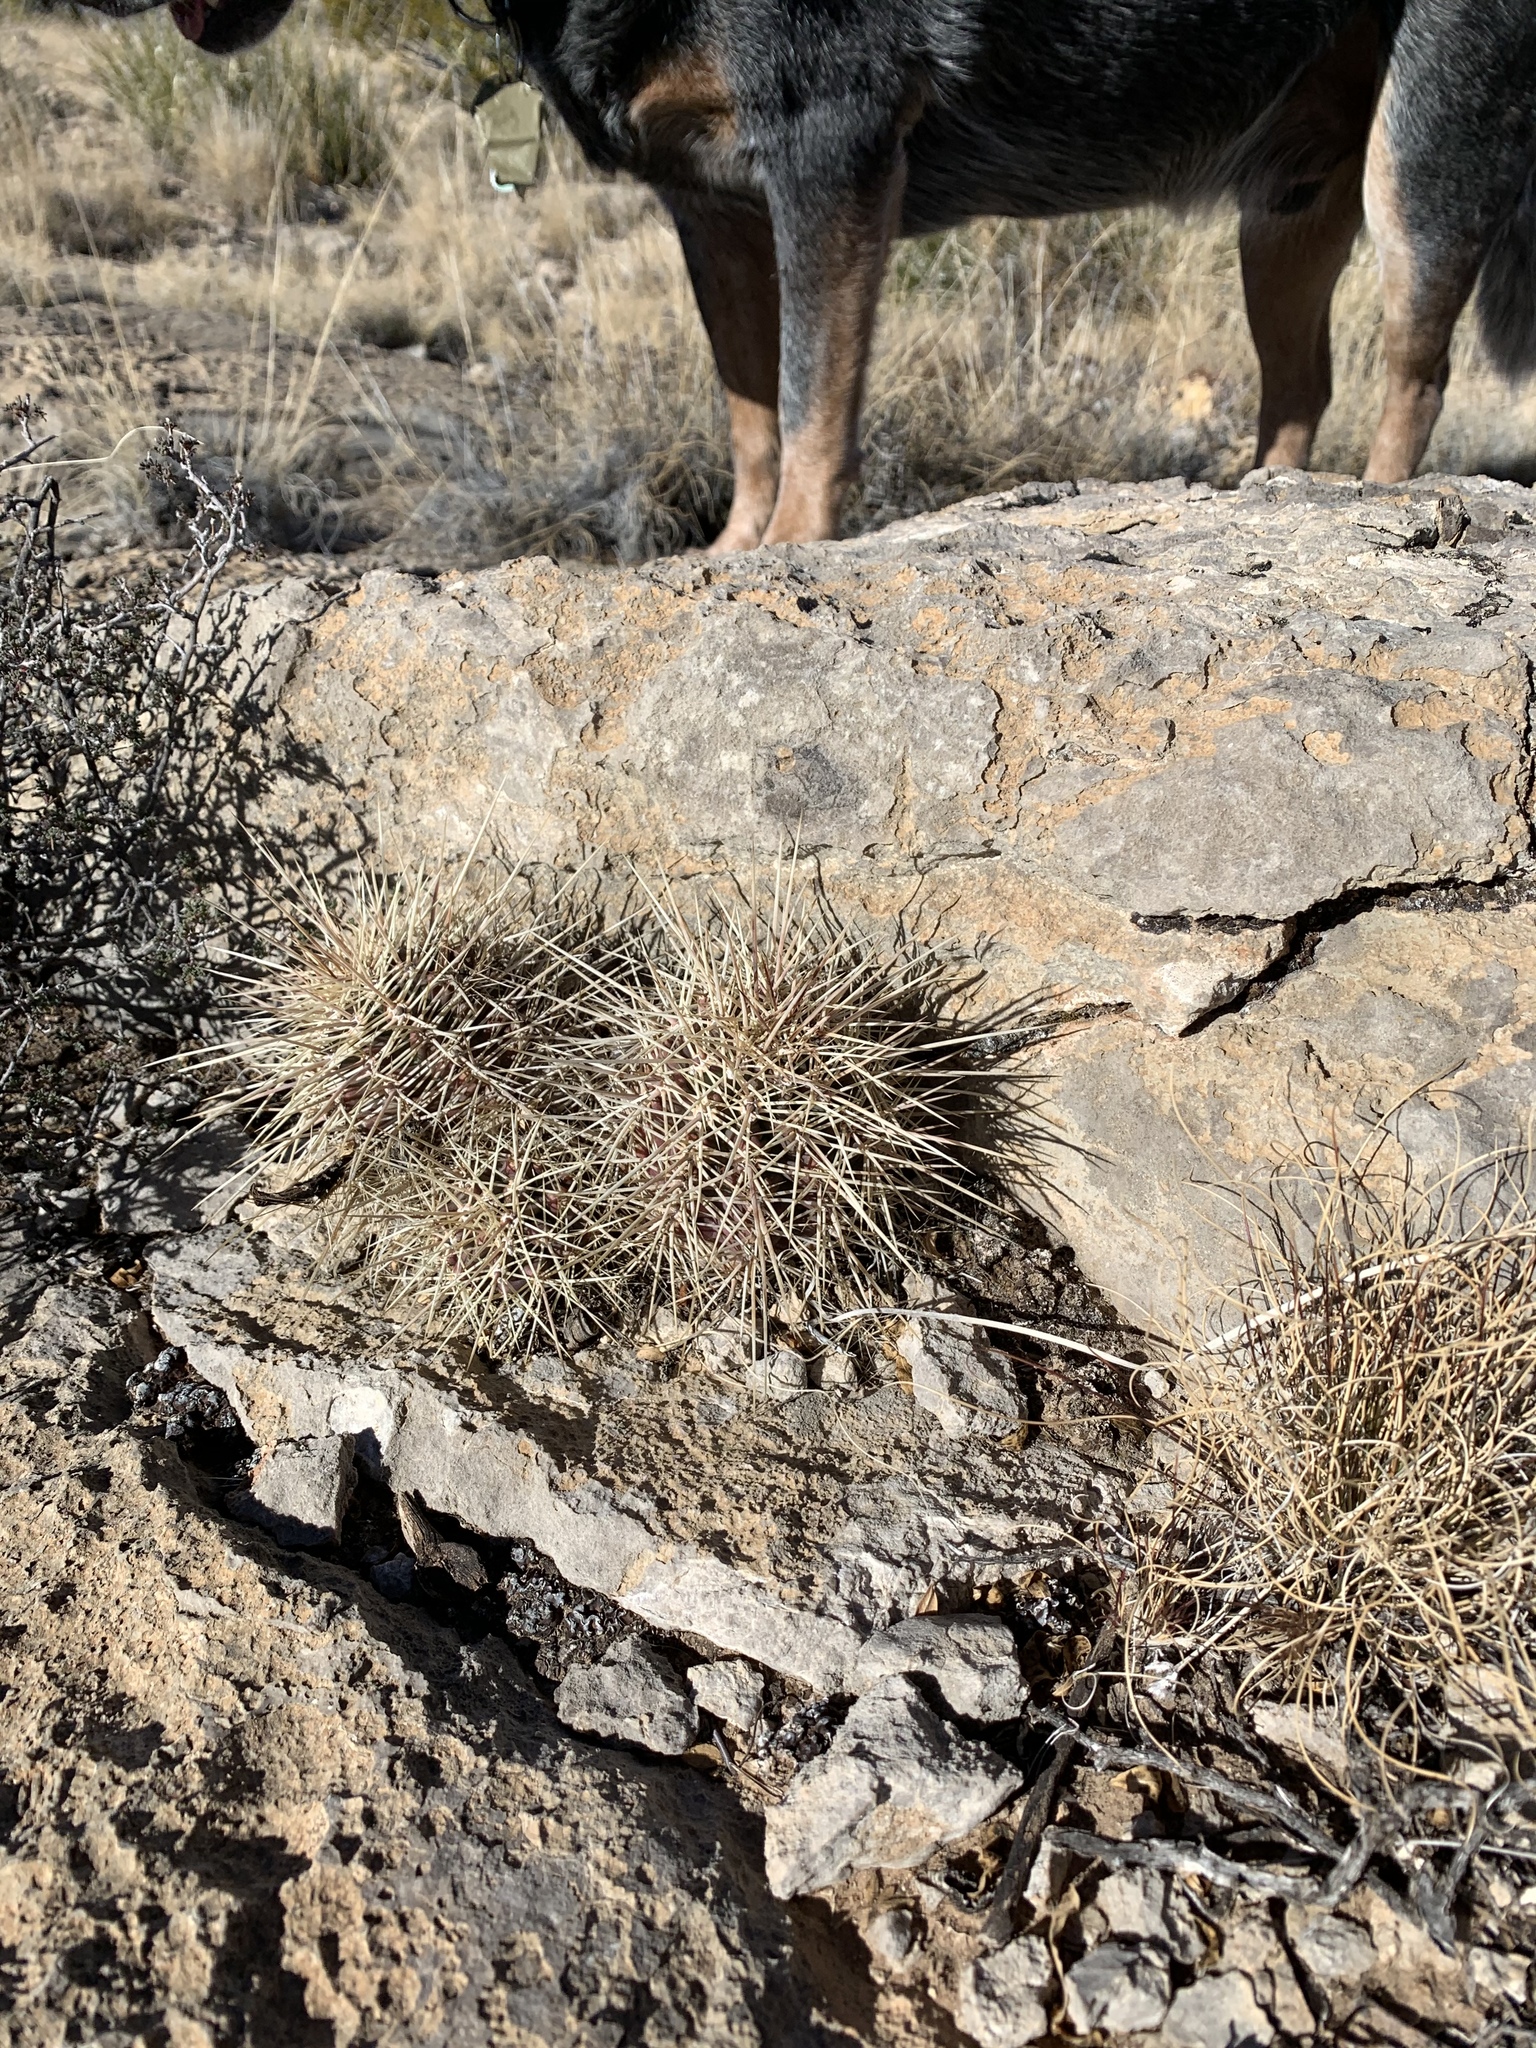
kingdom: Plantae
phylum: Tracheophyta
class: Magnoliopsida
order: Caryophyllales
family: Cactaceae
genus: Echinocereus
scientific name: Echinocereus coccineus
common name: Scarlet hedgehog cactus
